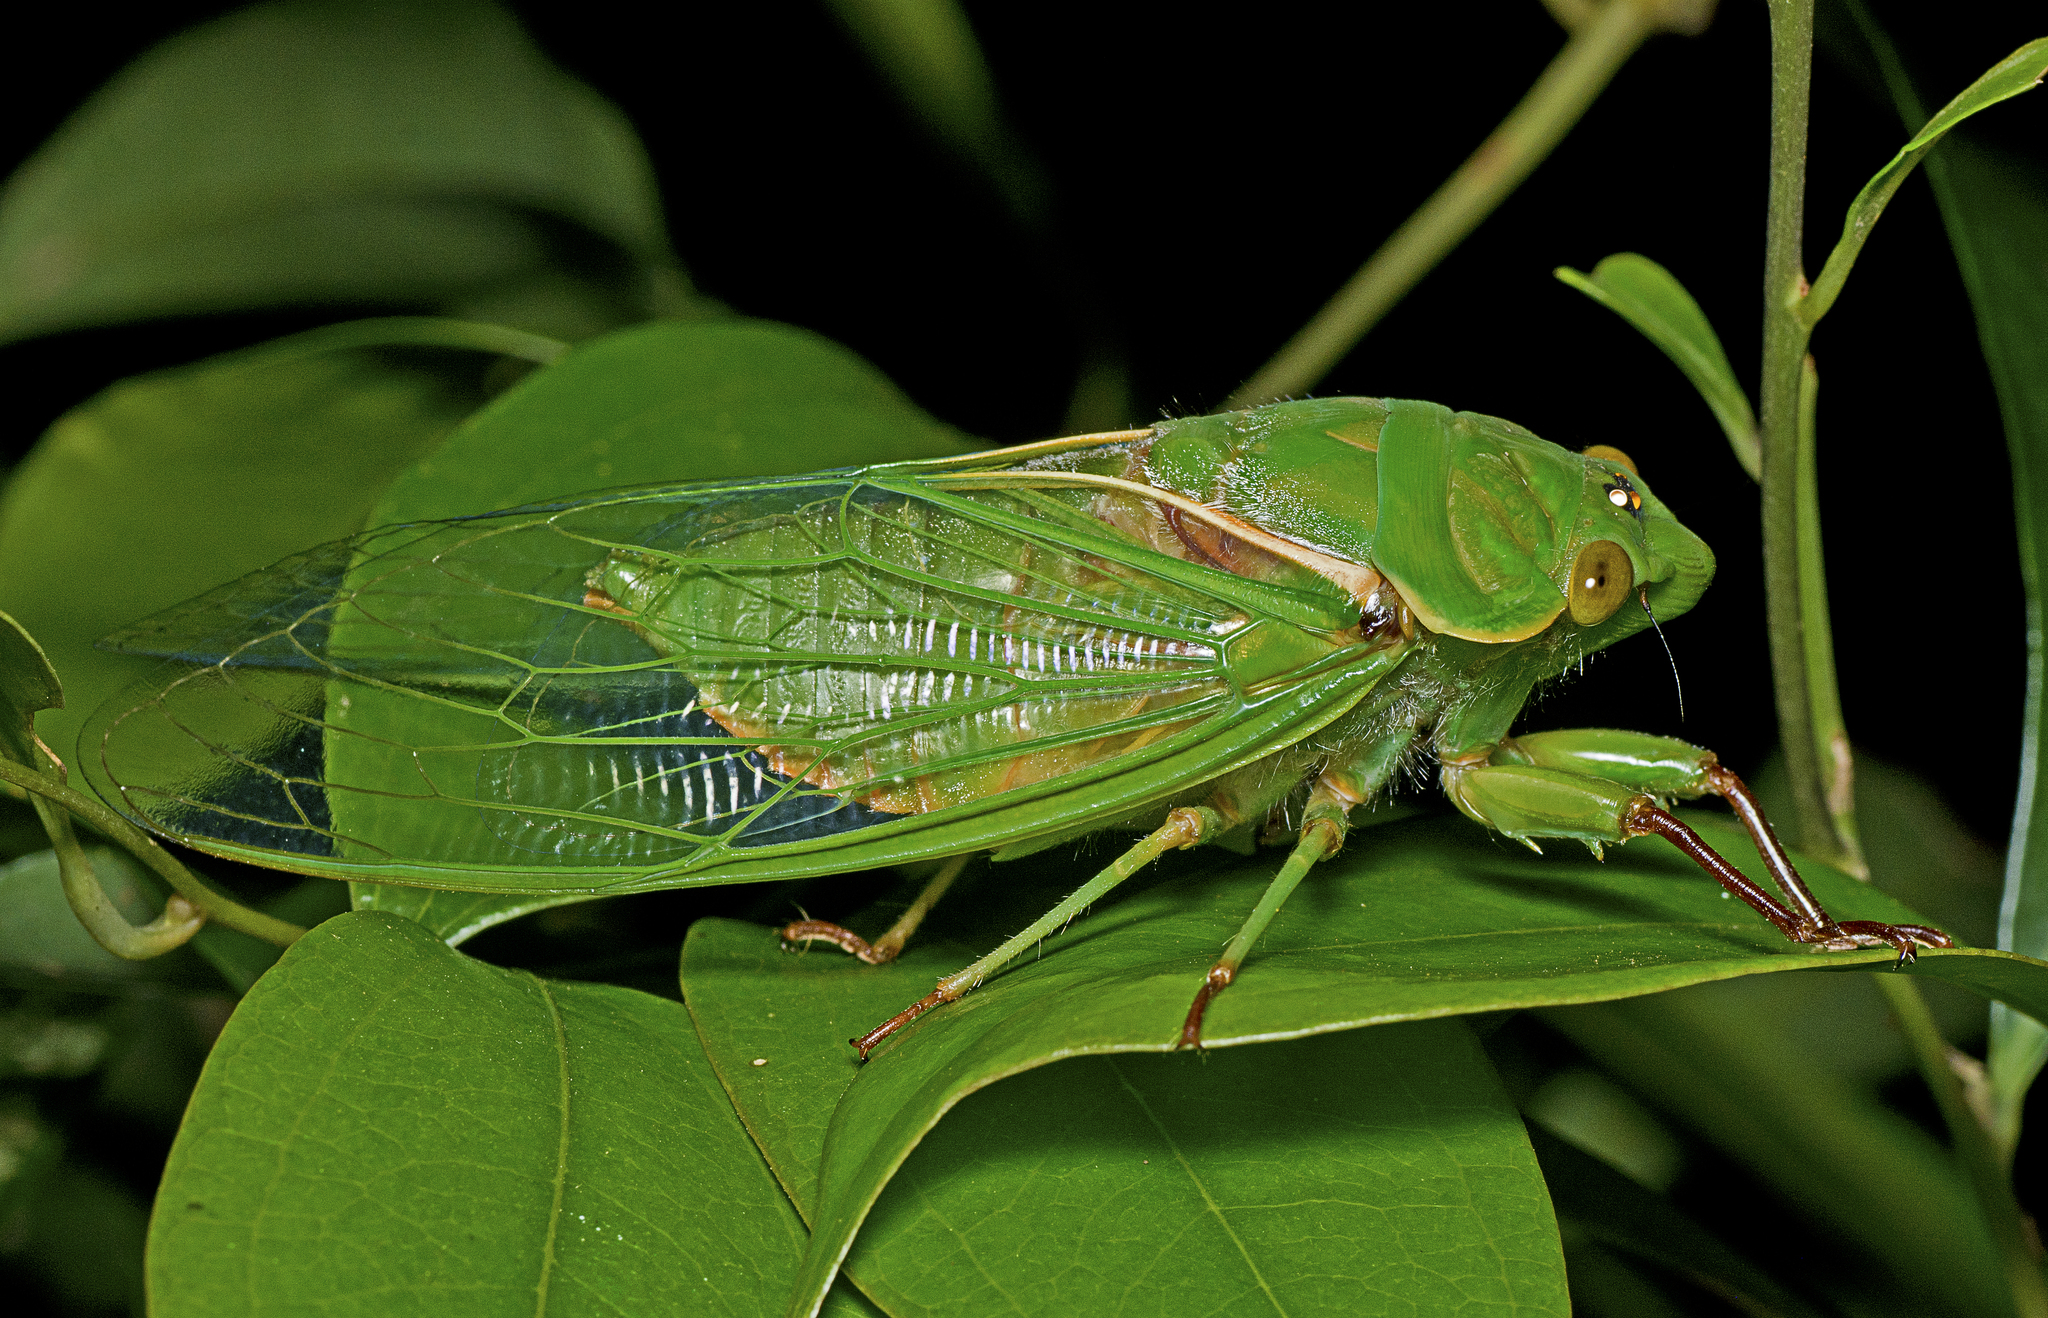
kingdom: Animalia
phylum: Arthropoda
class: Insecta
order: Hemiptera
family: Cicadidae
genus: Cyclochila
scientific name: Cyclochila australasiae
